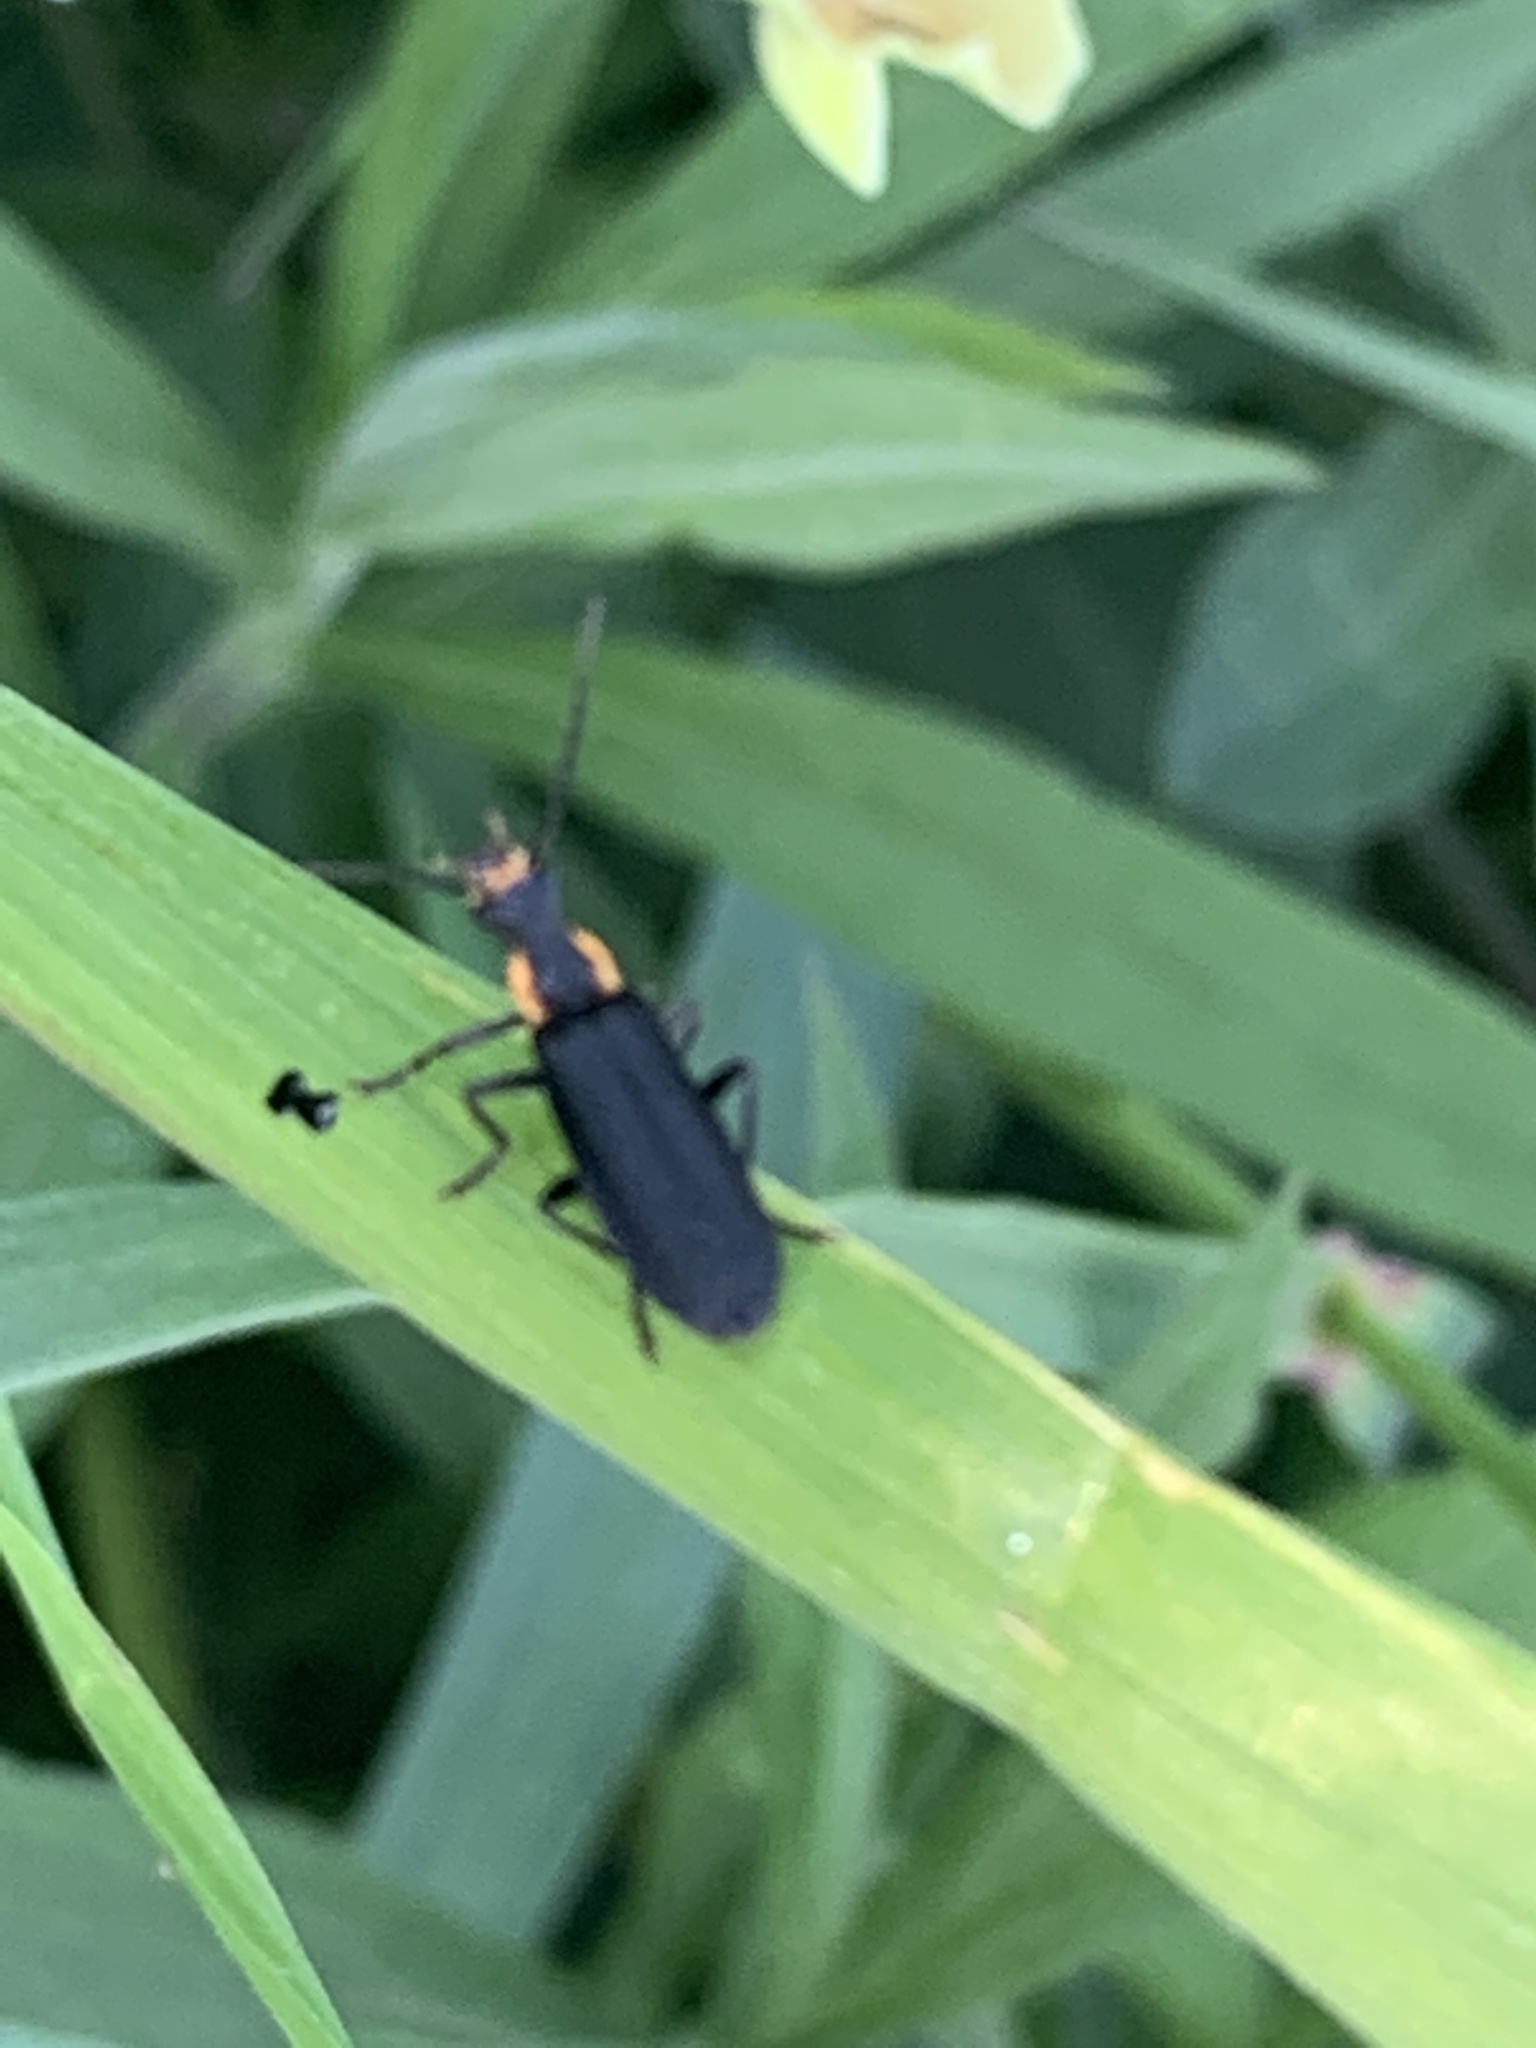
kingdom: Animalia
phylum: Arthropoda
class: Insecta
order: Coleoptera
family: Cantharidae
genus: Podabrus
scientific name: Podabrus rugosulus
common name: Wrinkled soldier beetle
